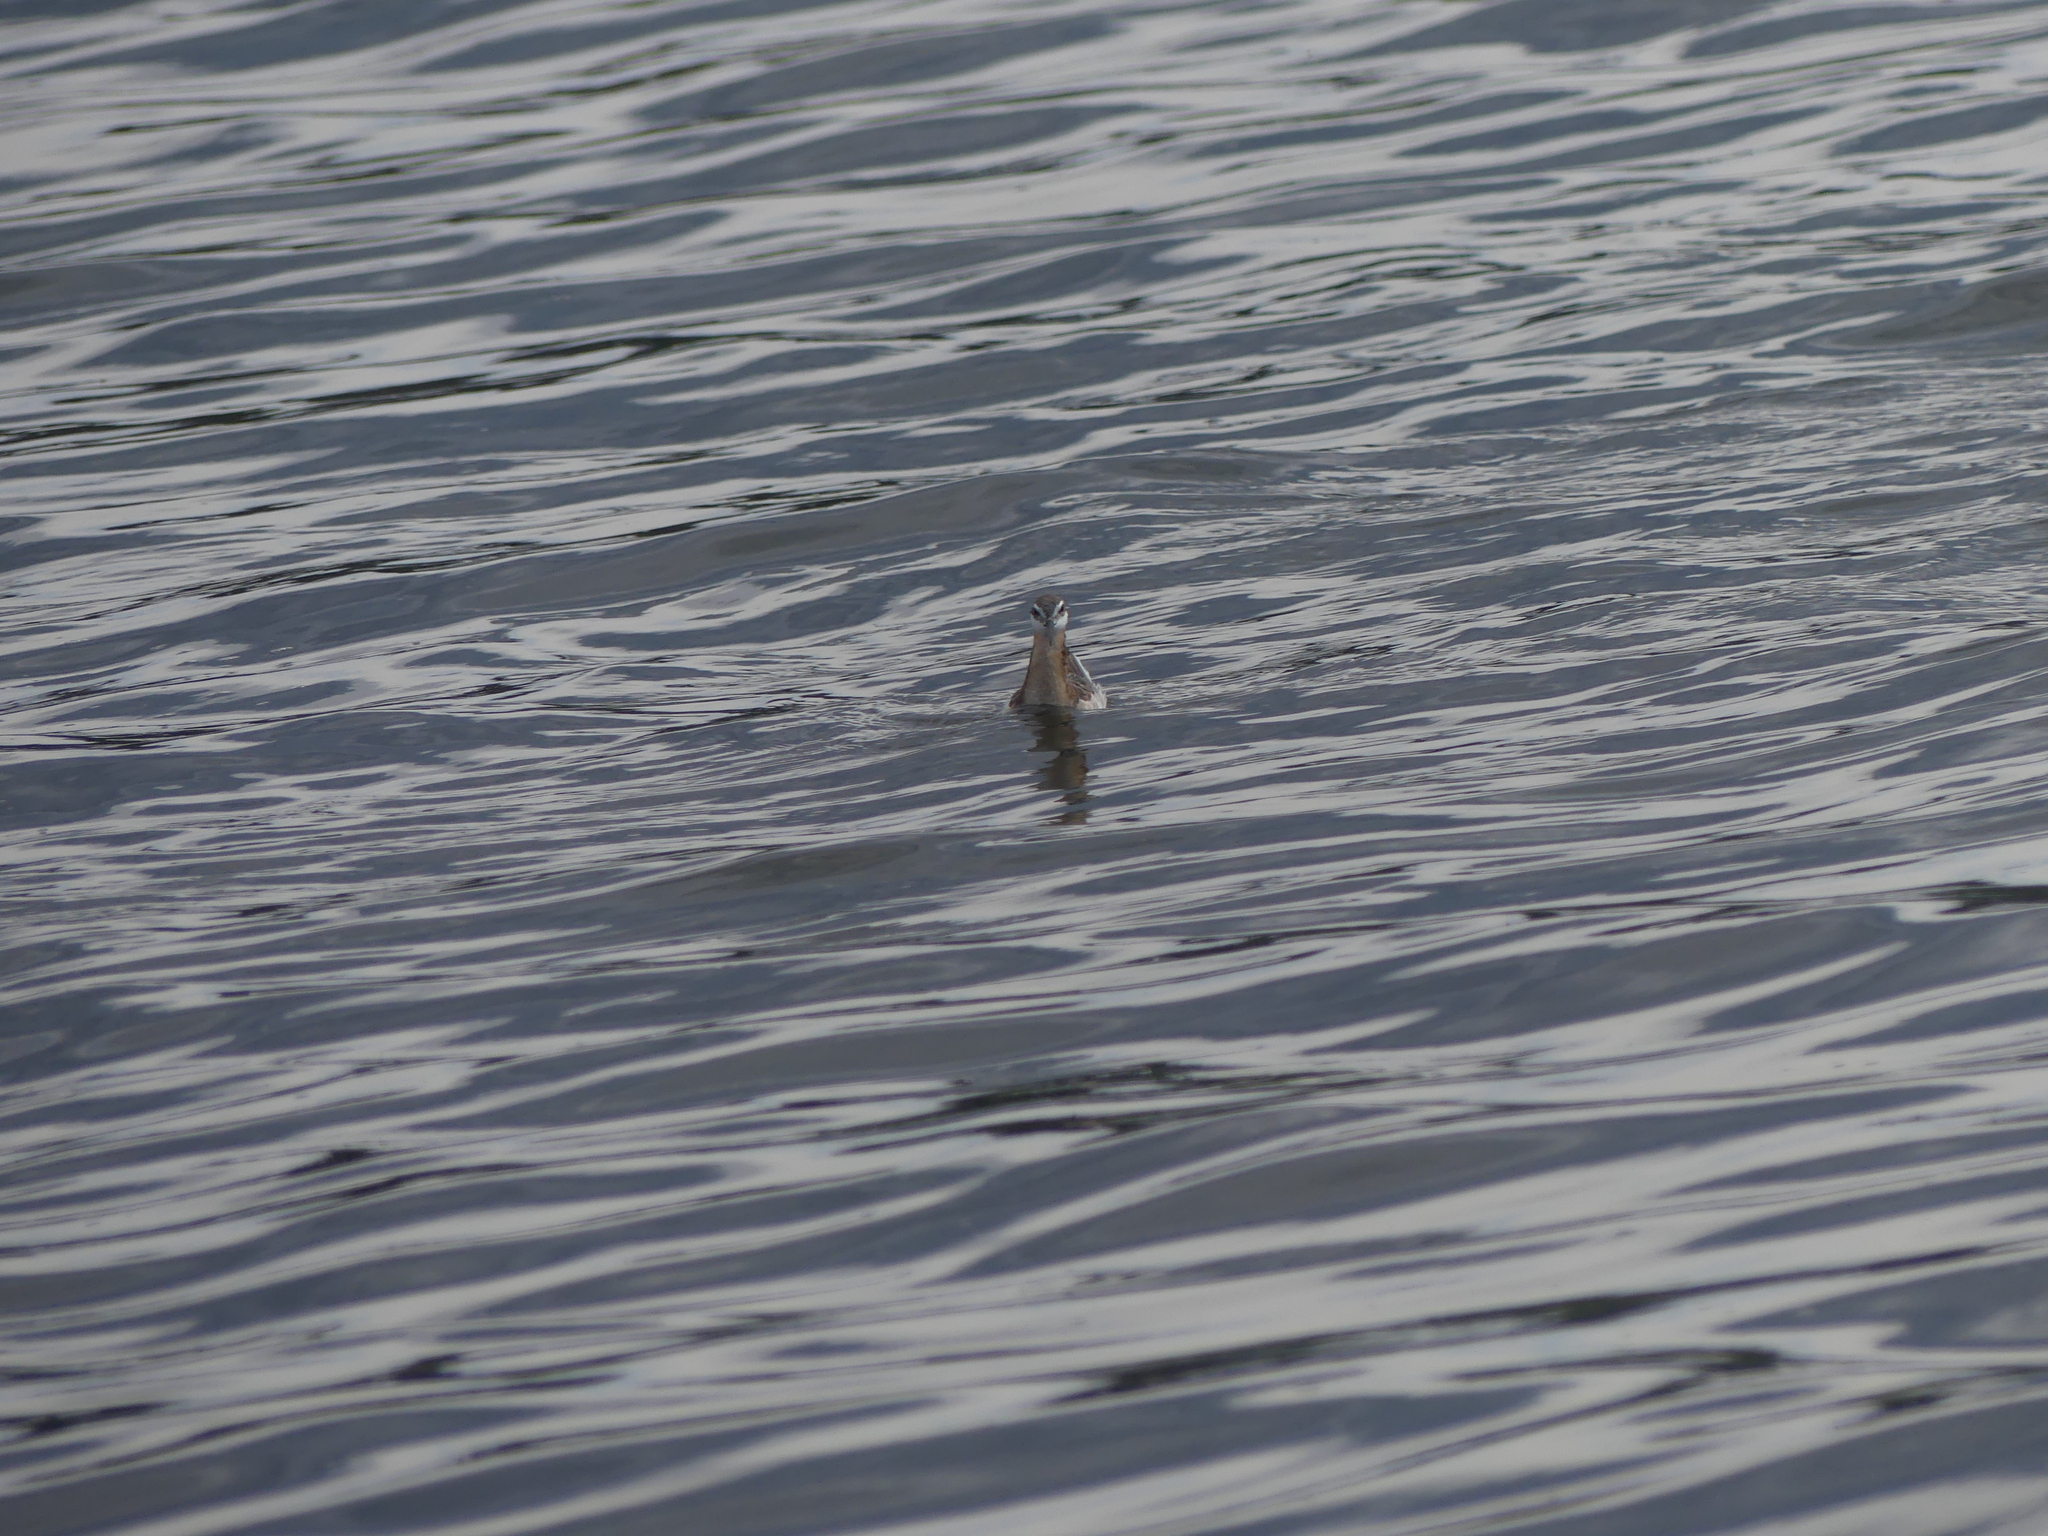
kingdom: Animalia
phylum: Chordata
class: Aves
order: Charadriiformes
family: Scolopacidae
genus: Phalaropus
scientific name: Phalaropus tricolor
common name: Wilson's phalarope
